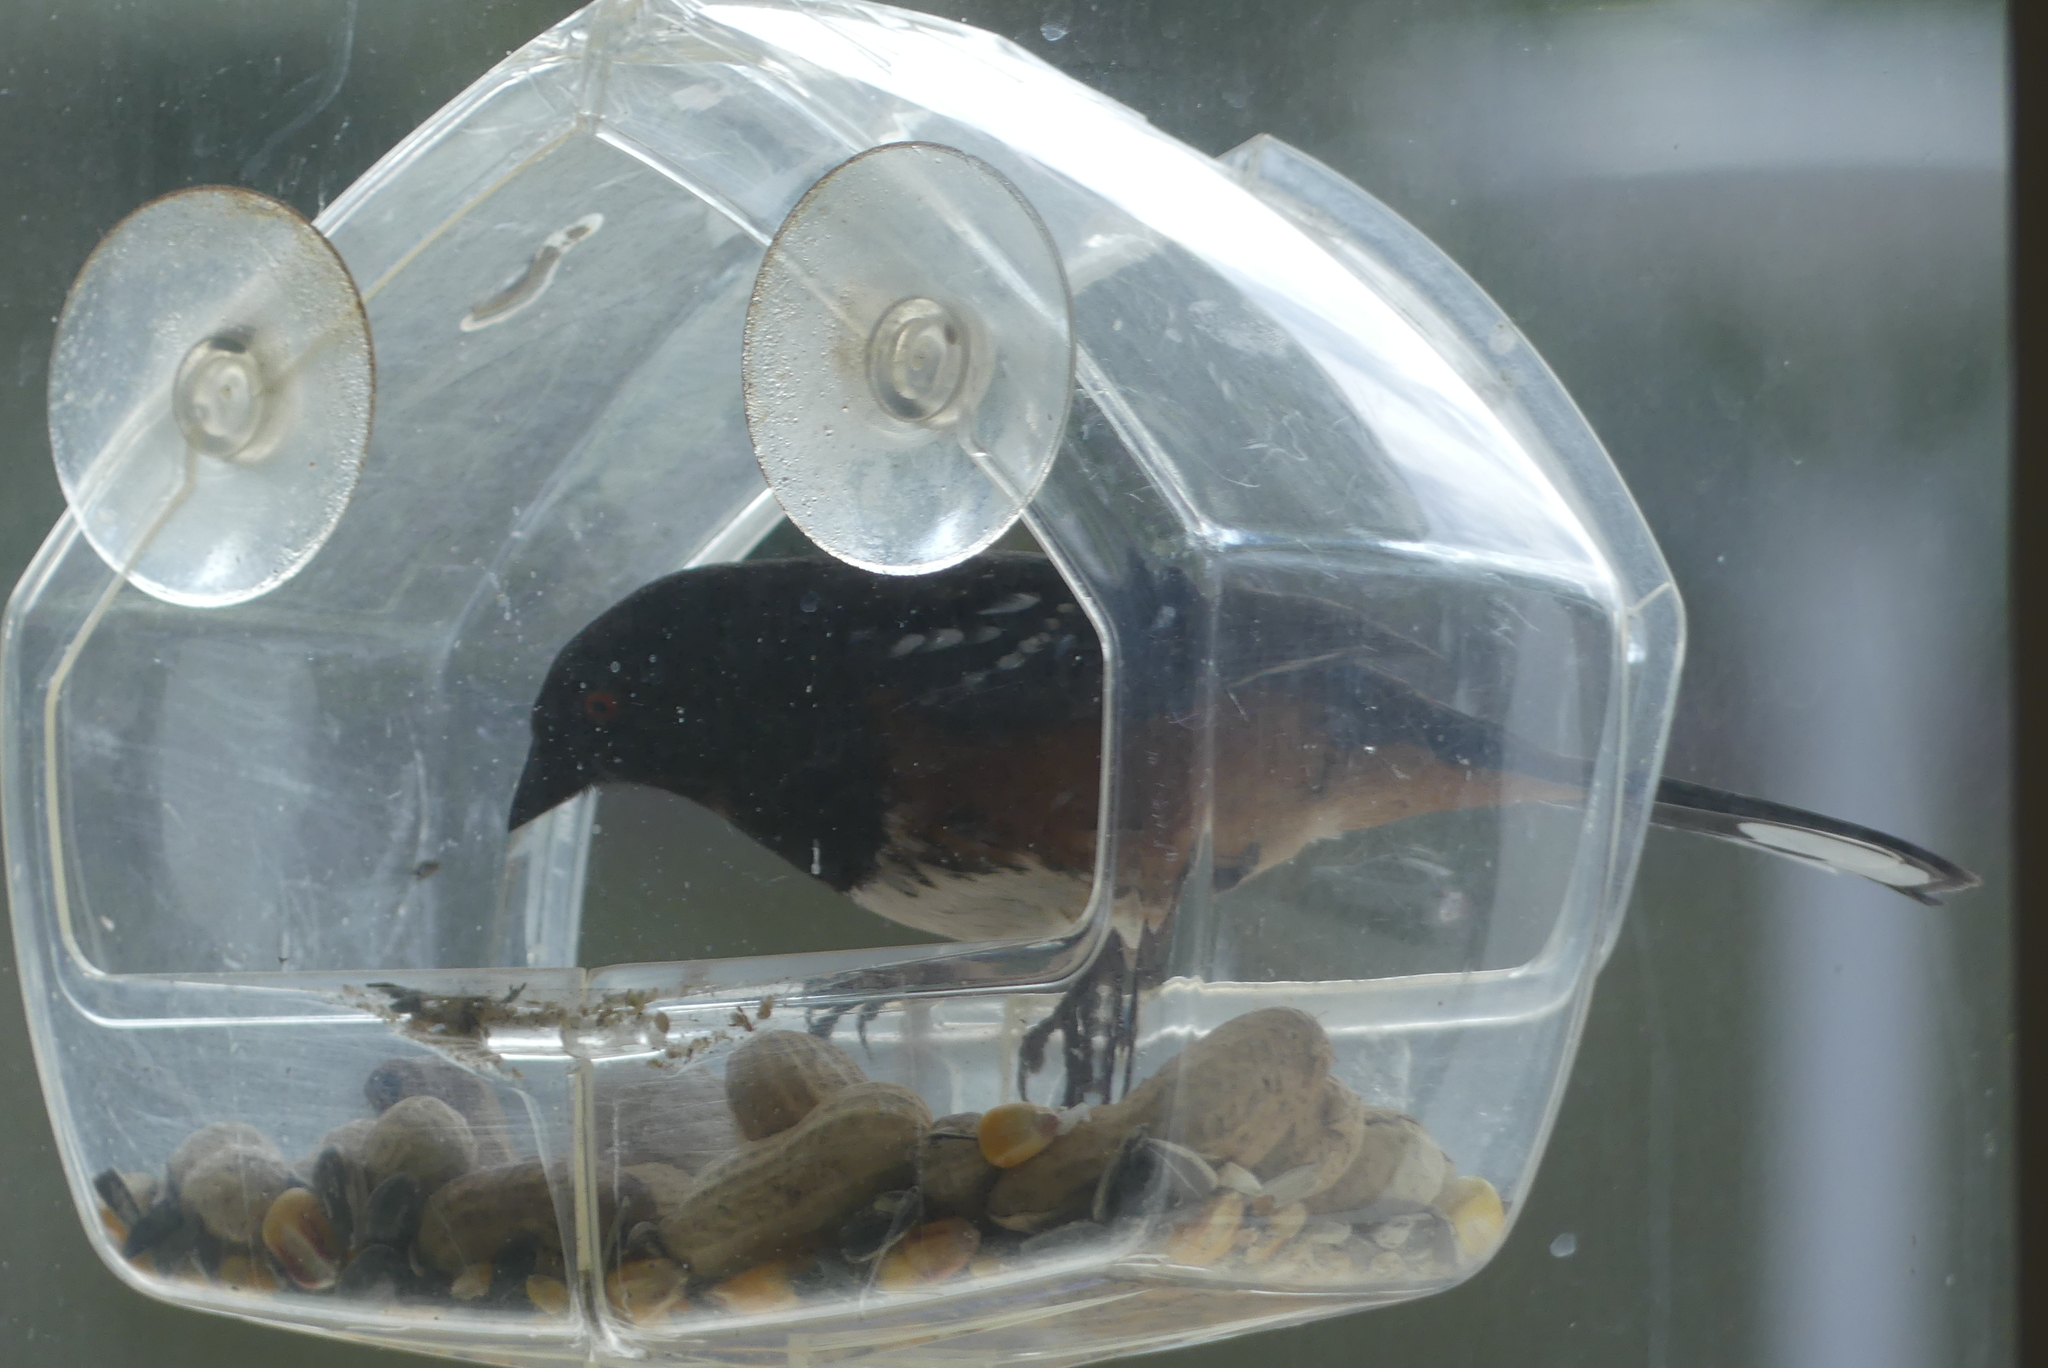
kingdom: Animalia
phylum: Chordata
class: Aves
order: Passeriformes
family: Passerellidae
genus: Pipilo
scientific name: Pipilo maculatus
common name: Spotted towhee
